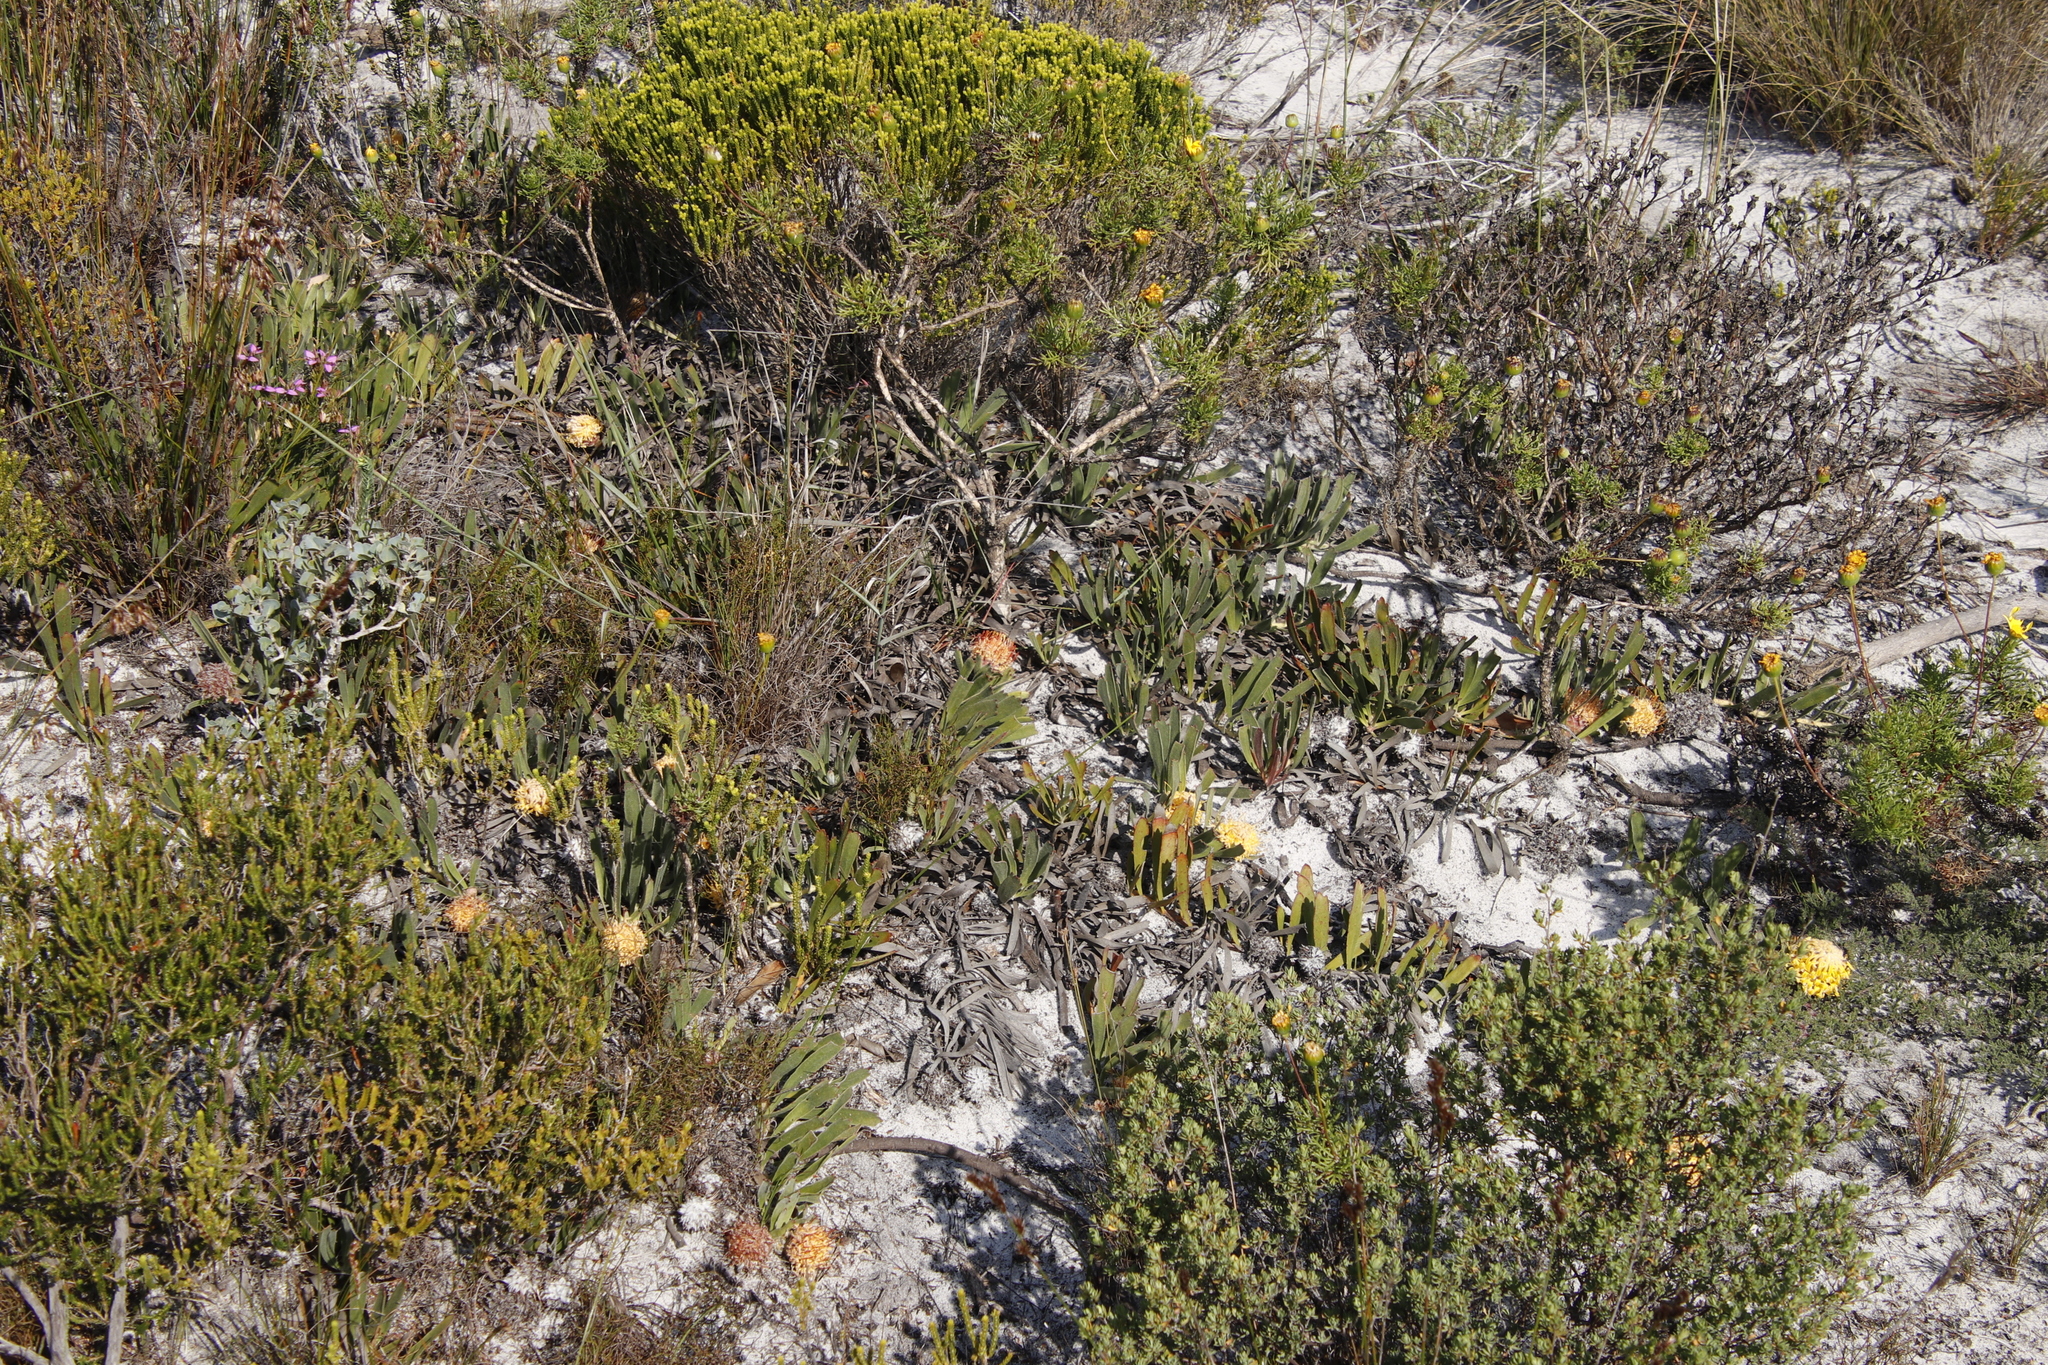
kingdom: Plantae
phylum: Tracheophyta
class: Magnoliopsida
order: Proteales
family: Proteaceae
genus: Leucospermum
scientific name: Leucospermum hypophyllocarpodendron
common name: Snakestem pincushion
